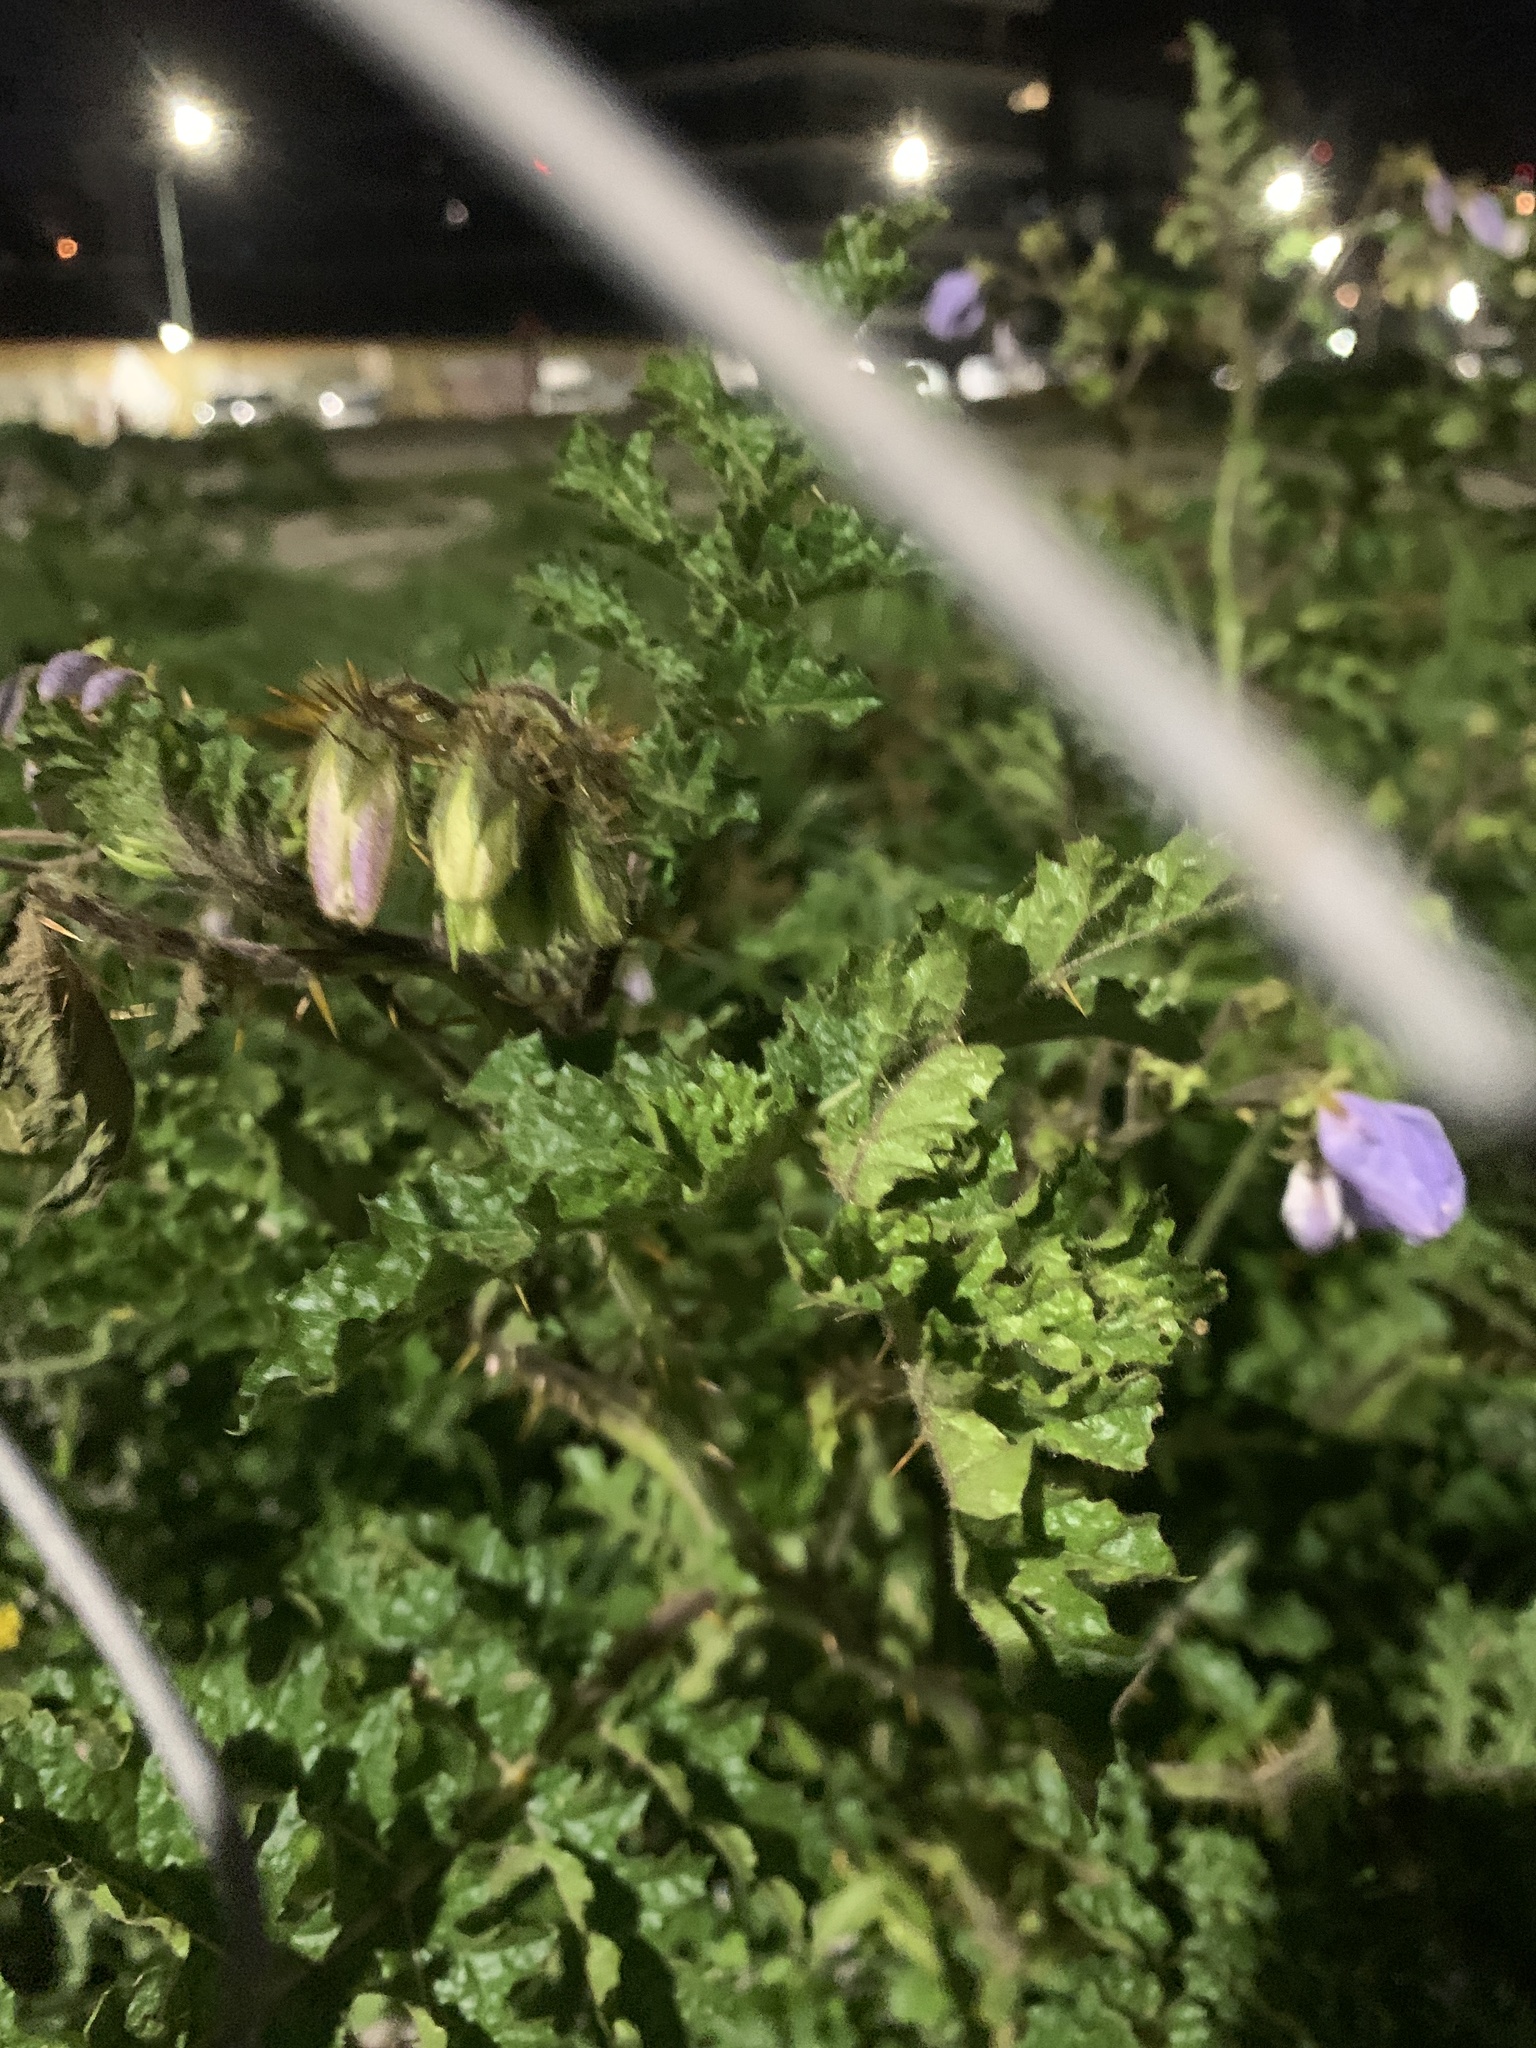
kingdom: Plantae
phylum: Tracheophyta
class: Magnoliopsida
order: Solanales
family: Solanaceae
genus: Solanum
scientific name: Solanum sisymbriifolium
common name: Red buffalo-bur
